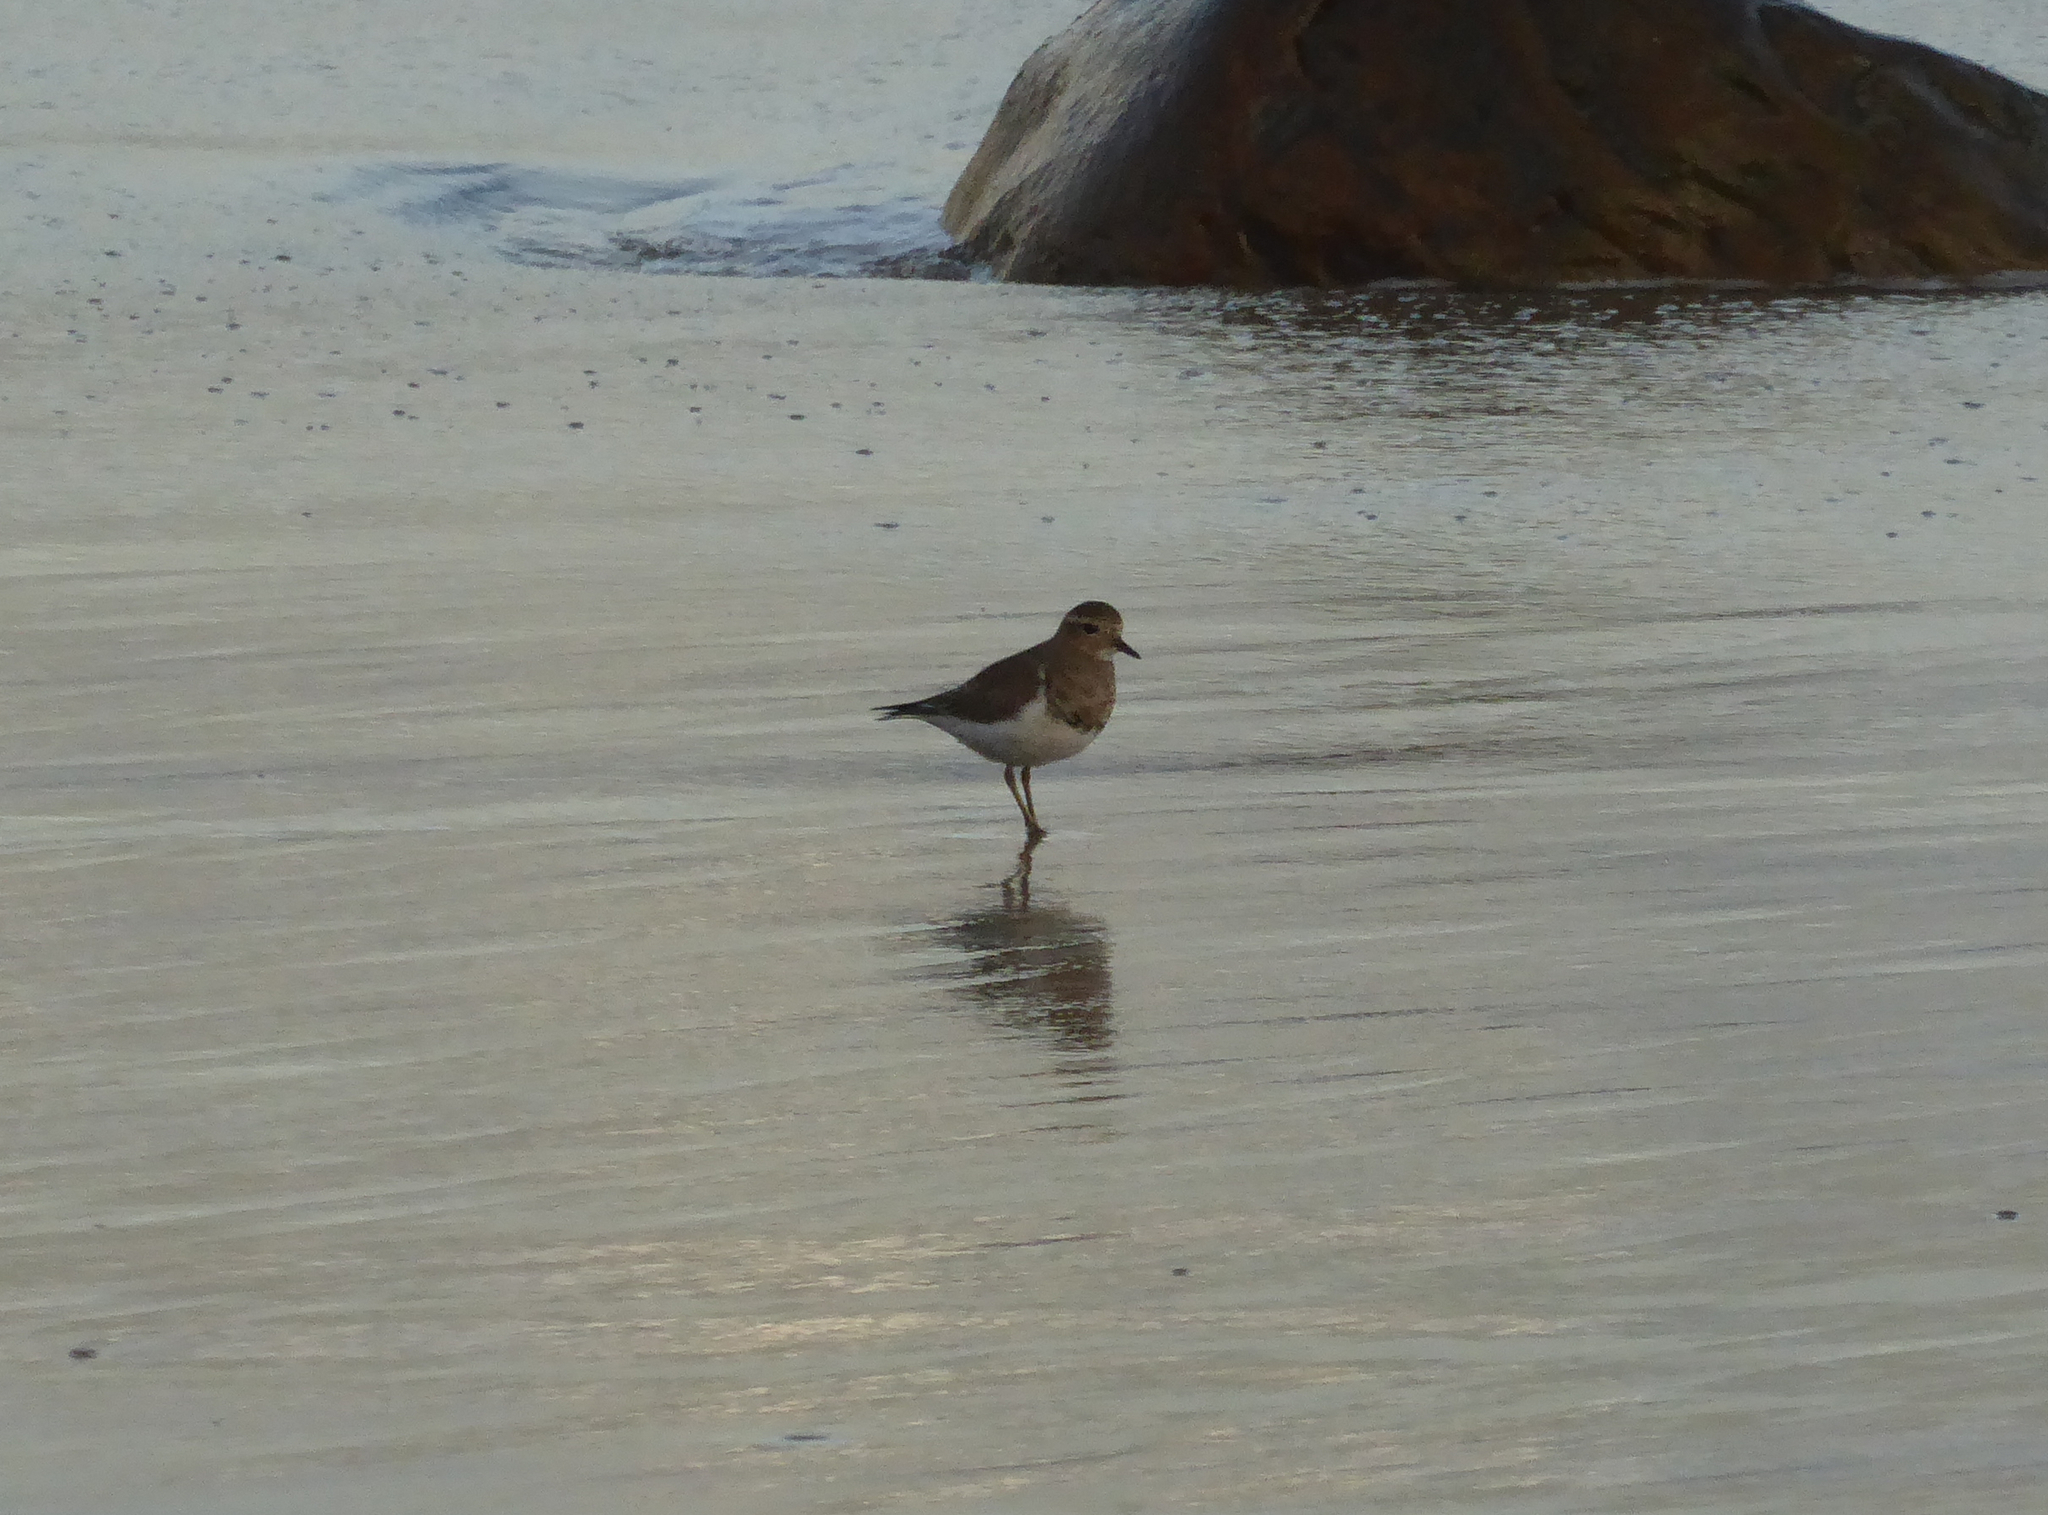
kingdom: Animalia
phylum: Chordata
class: Aves
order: Charadriiformes
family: Charadriidae
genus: Charadrius
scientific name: Charadrius modestus
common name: Rufous-chested plover
